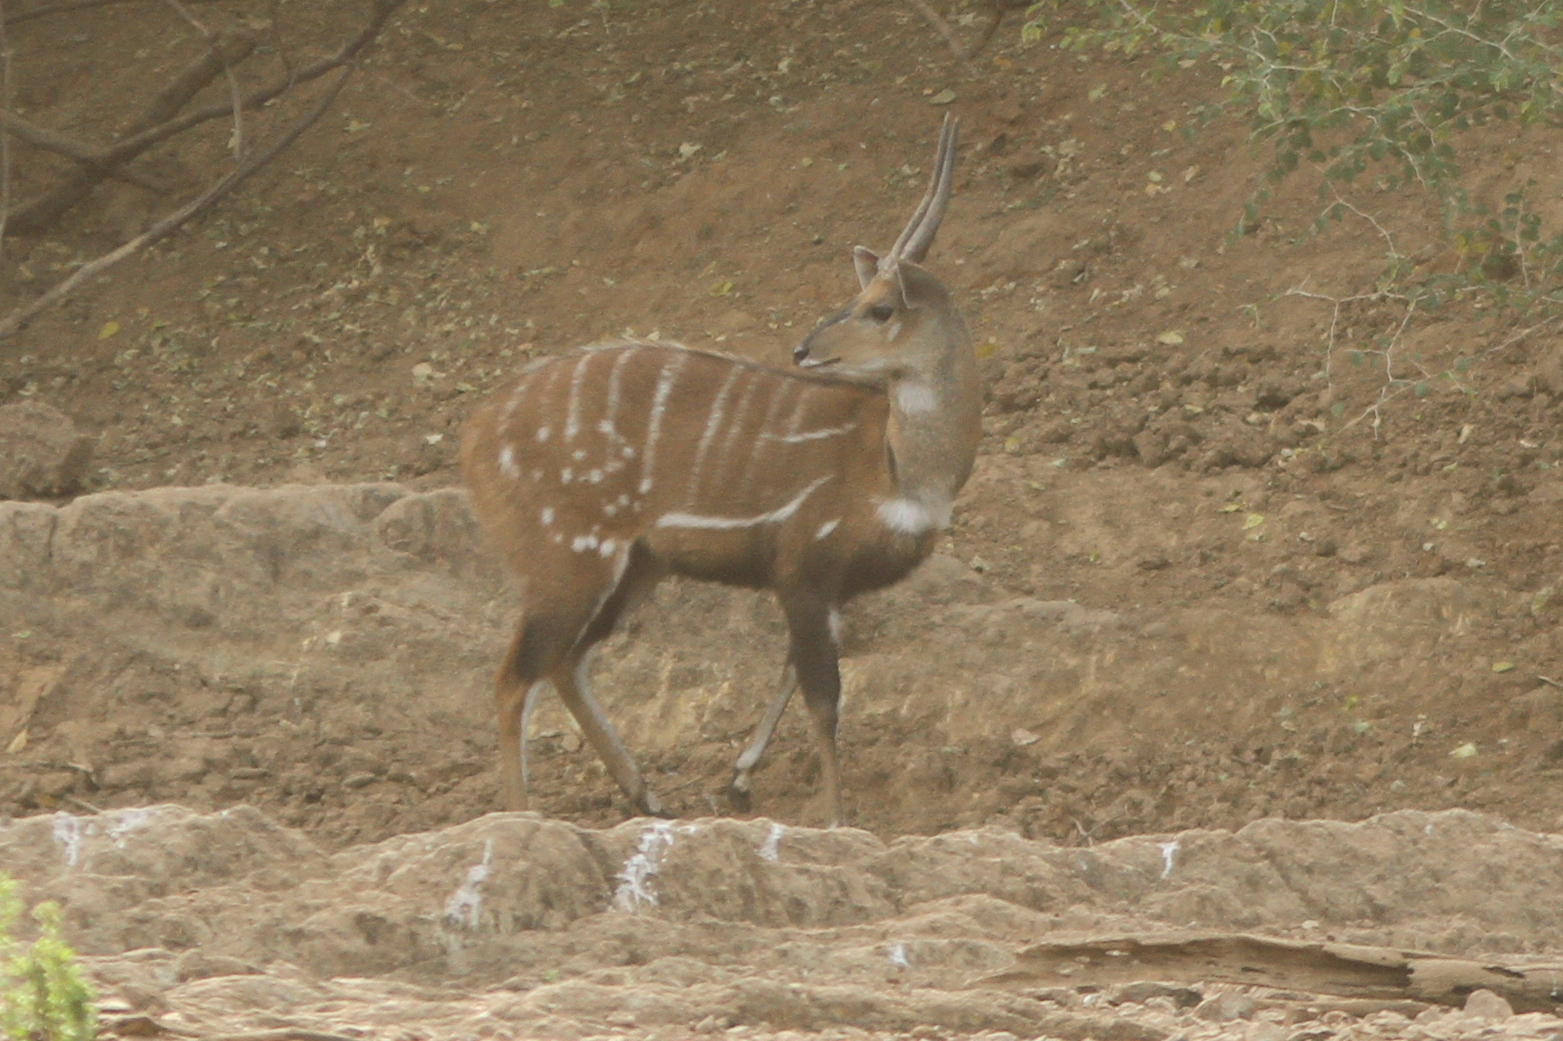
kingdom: Animalia
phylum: Chordata
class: Mammalia
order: Artiodactyla
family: Bovidae
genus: Tragelaphus
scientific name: Tragelaphus scriptus
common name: Bushbuck
